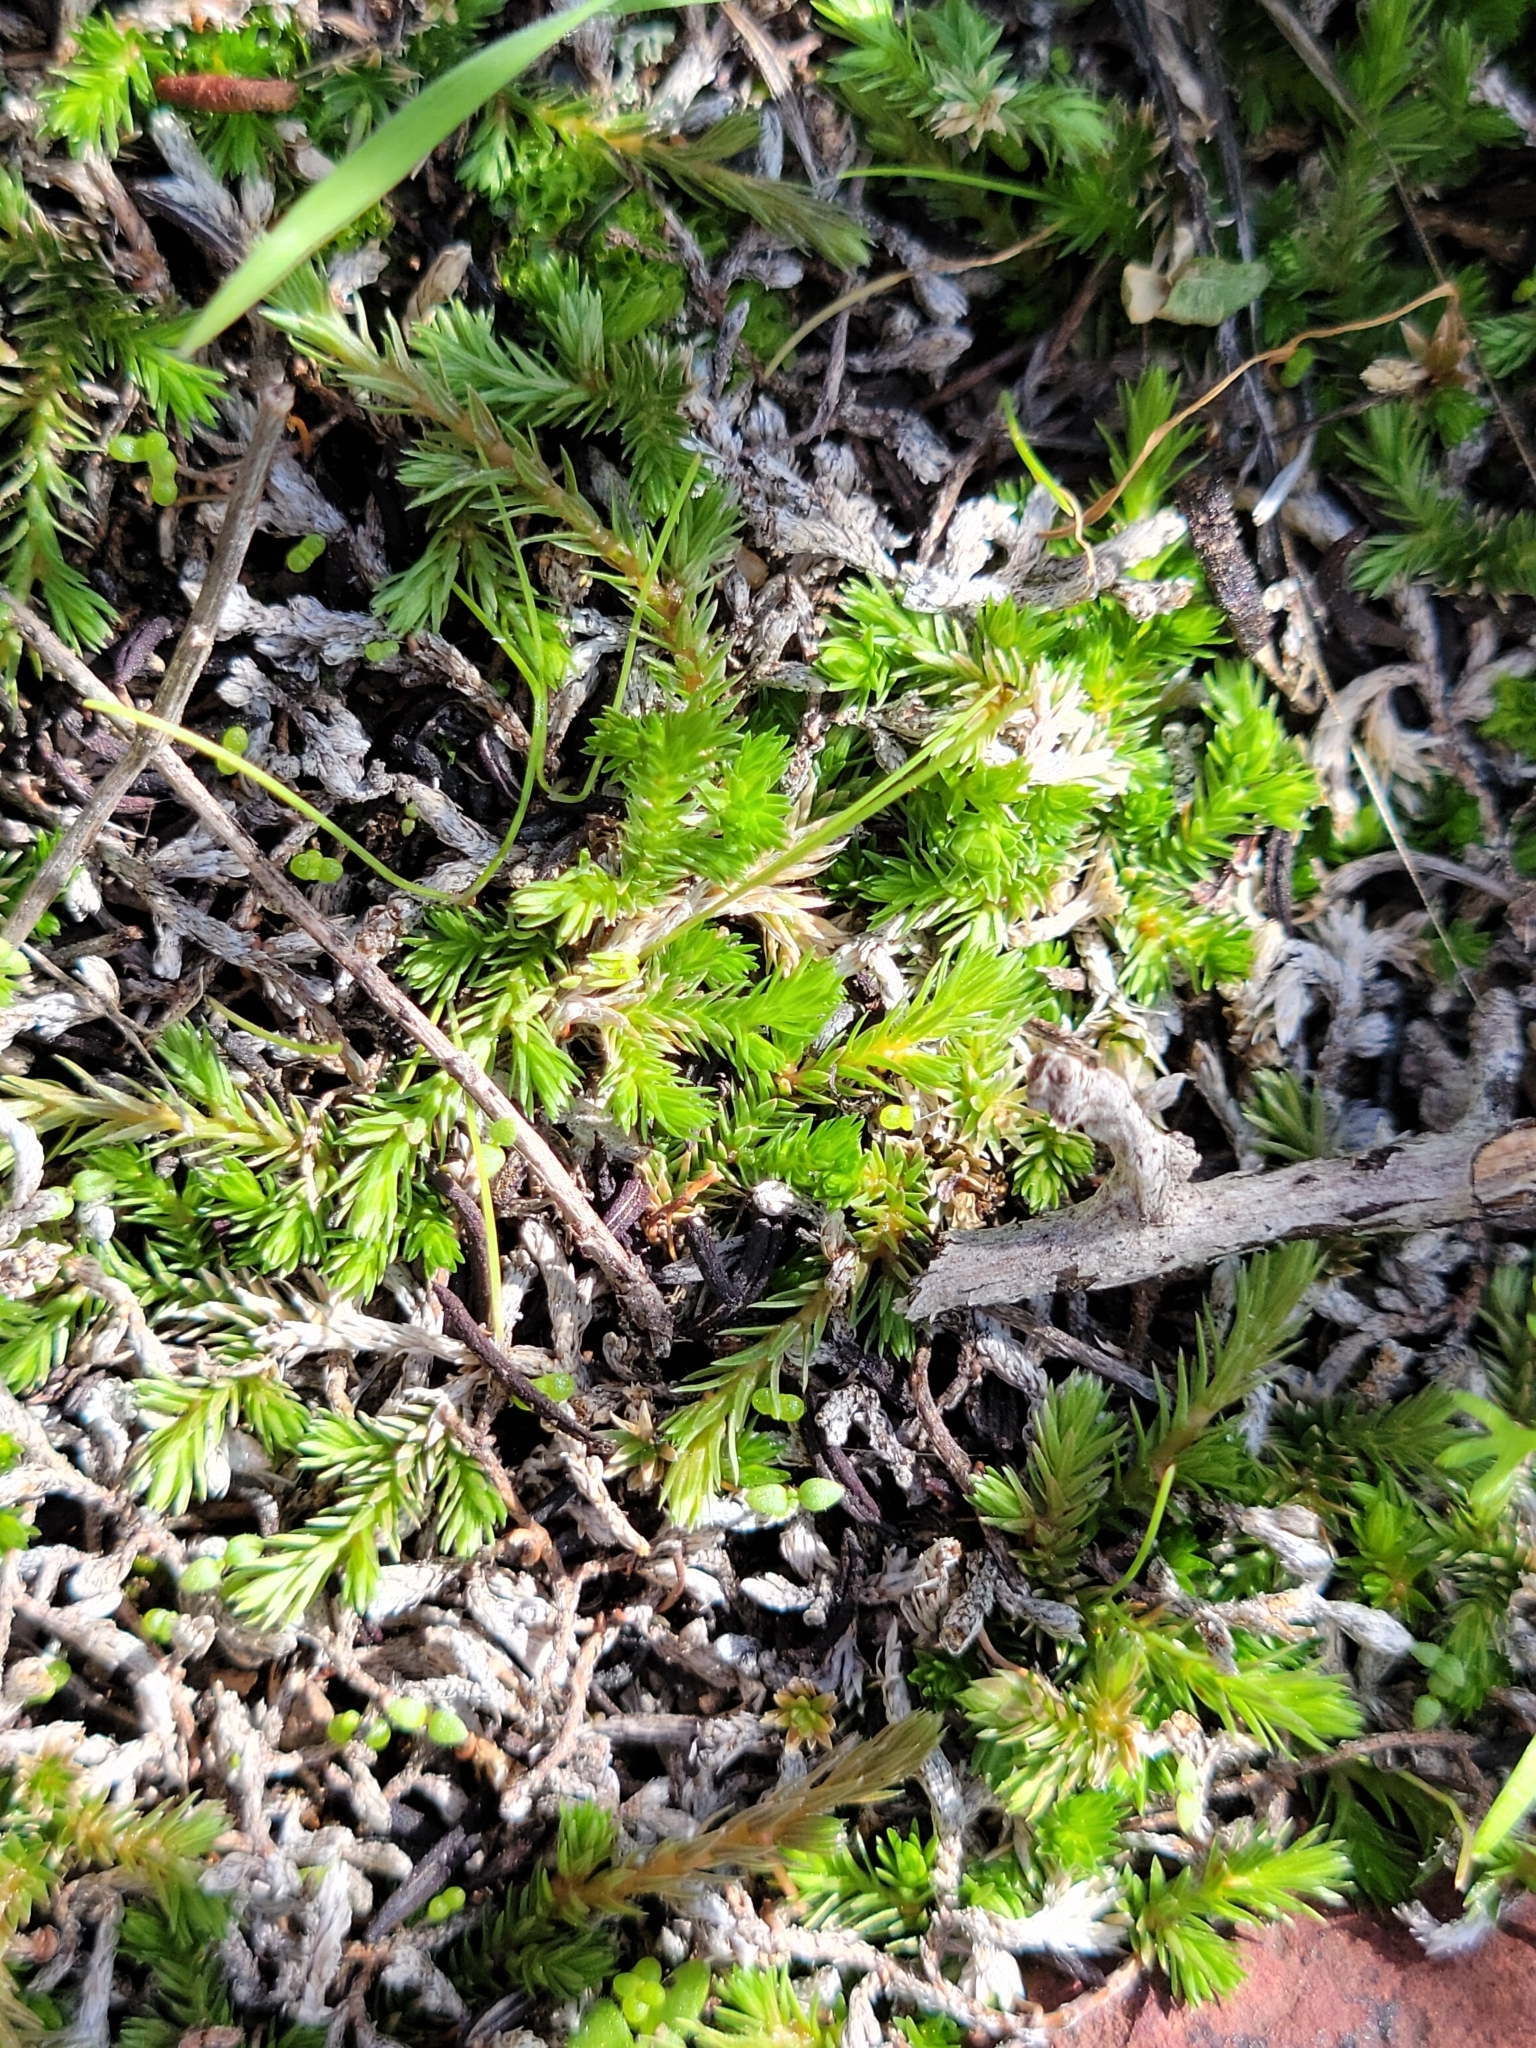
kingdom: Plantae
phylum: Tracheophyta
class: Lycopodiopsida
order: Selaginellales
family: Selaginellaceae
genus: Selaginella
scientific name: Selaginella cinerascens
